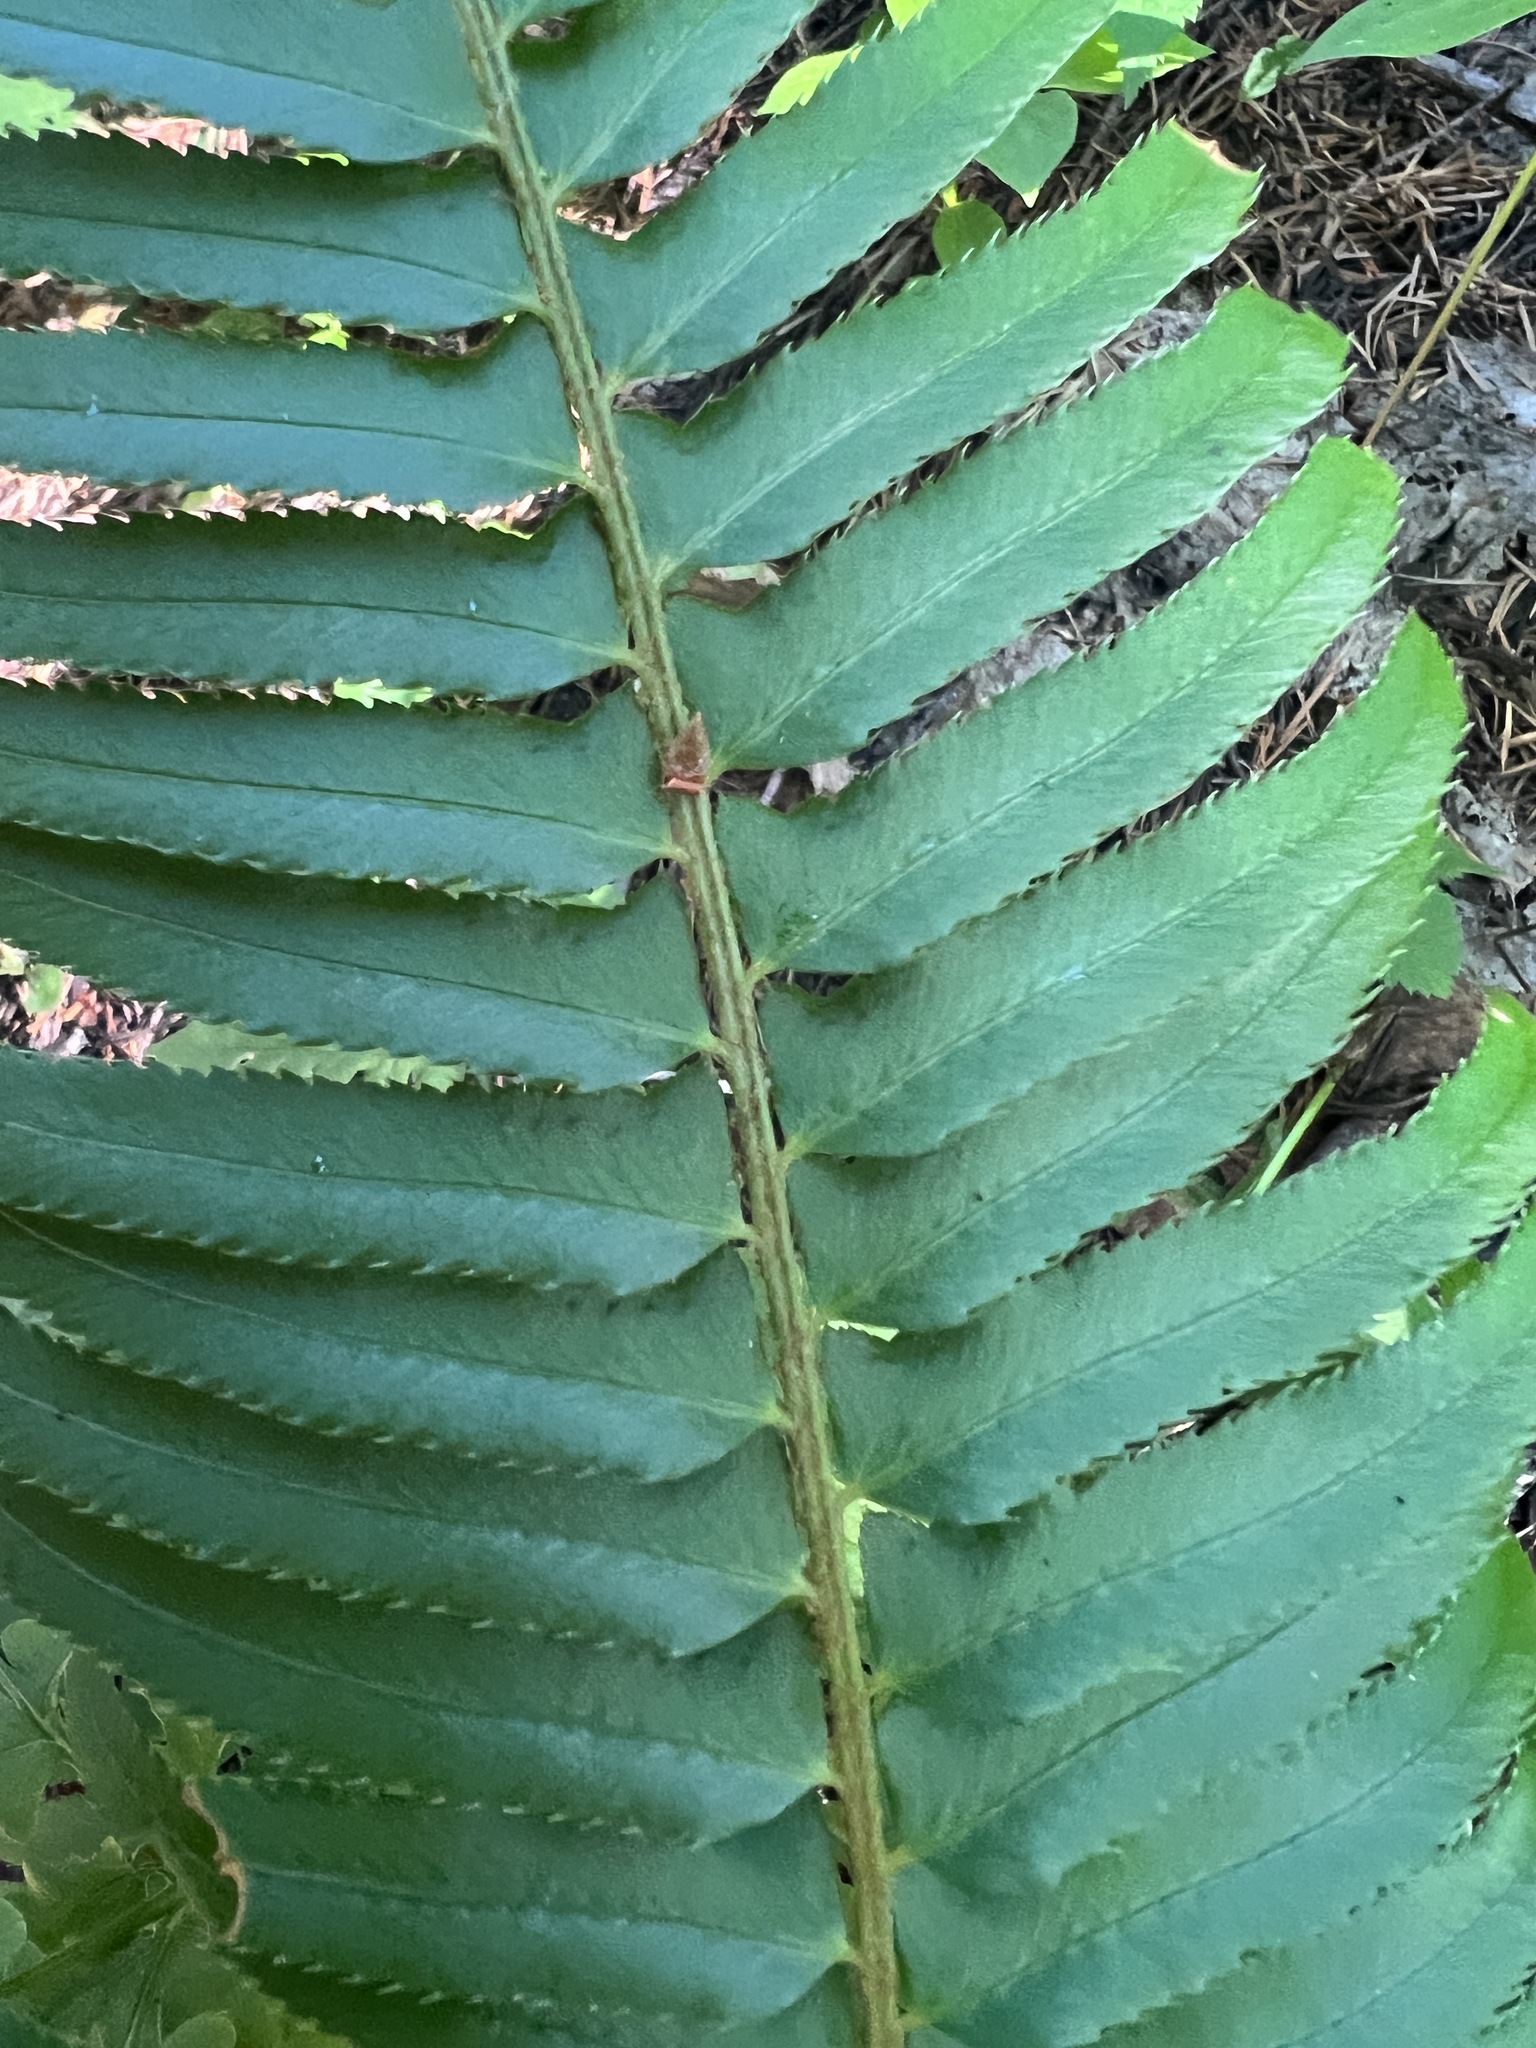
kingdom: Plantae
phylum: Tracheophyta
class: Polypodiopsida
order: Polypodiales
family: Dryopteridaceae
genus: Polystichum
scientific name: Polystichum munitum
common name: Western sword-fern
